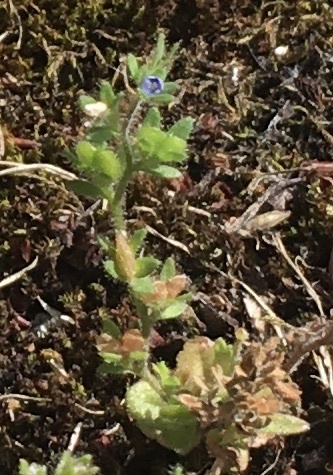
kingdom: Plantae
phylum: Tracheophyta
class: Magnoliopsida
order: Lamiales
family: Plantaginaceae
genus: Veronica
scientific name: Veronica arvensis
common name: Corn speedwell
